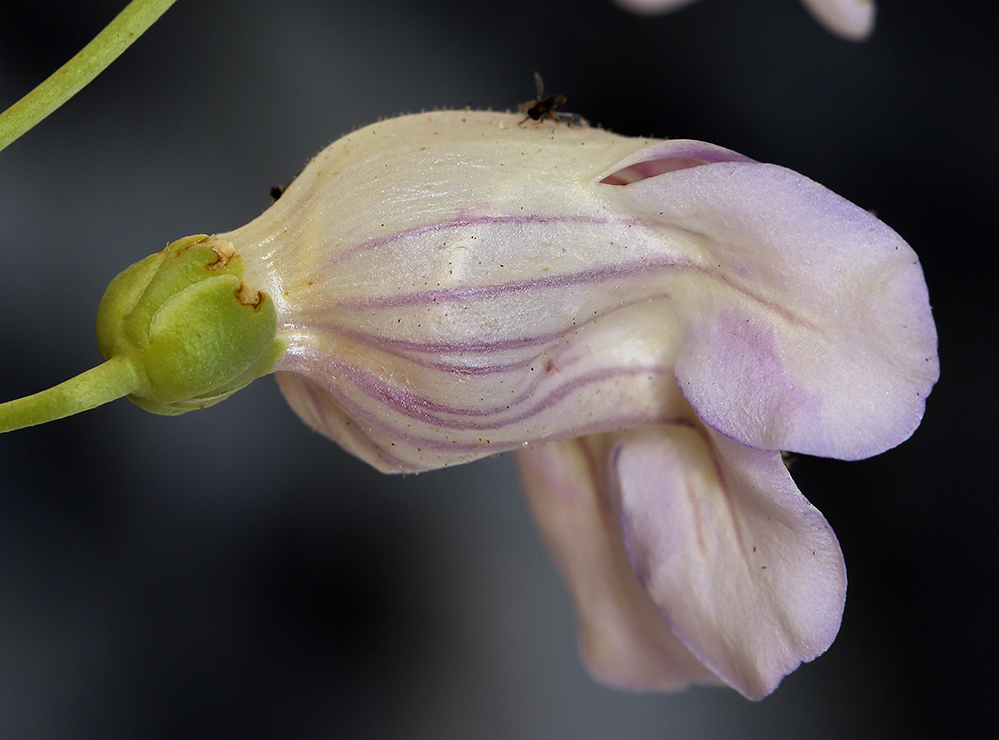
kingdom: Plantae
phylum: Tracheophyta
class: Magnoliopsida
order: Lamiales
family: Plantaginaceae
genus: Penstemon
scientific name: Penstemon fruticiformis
